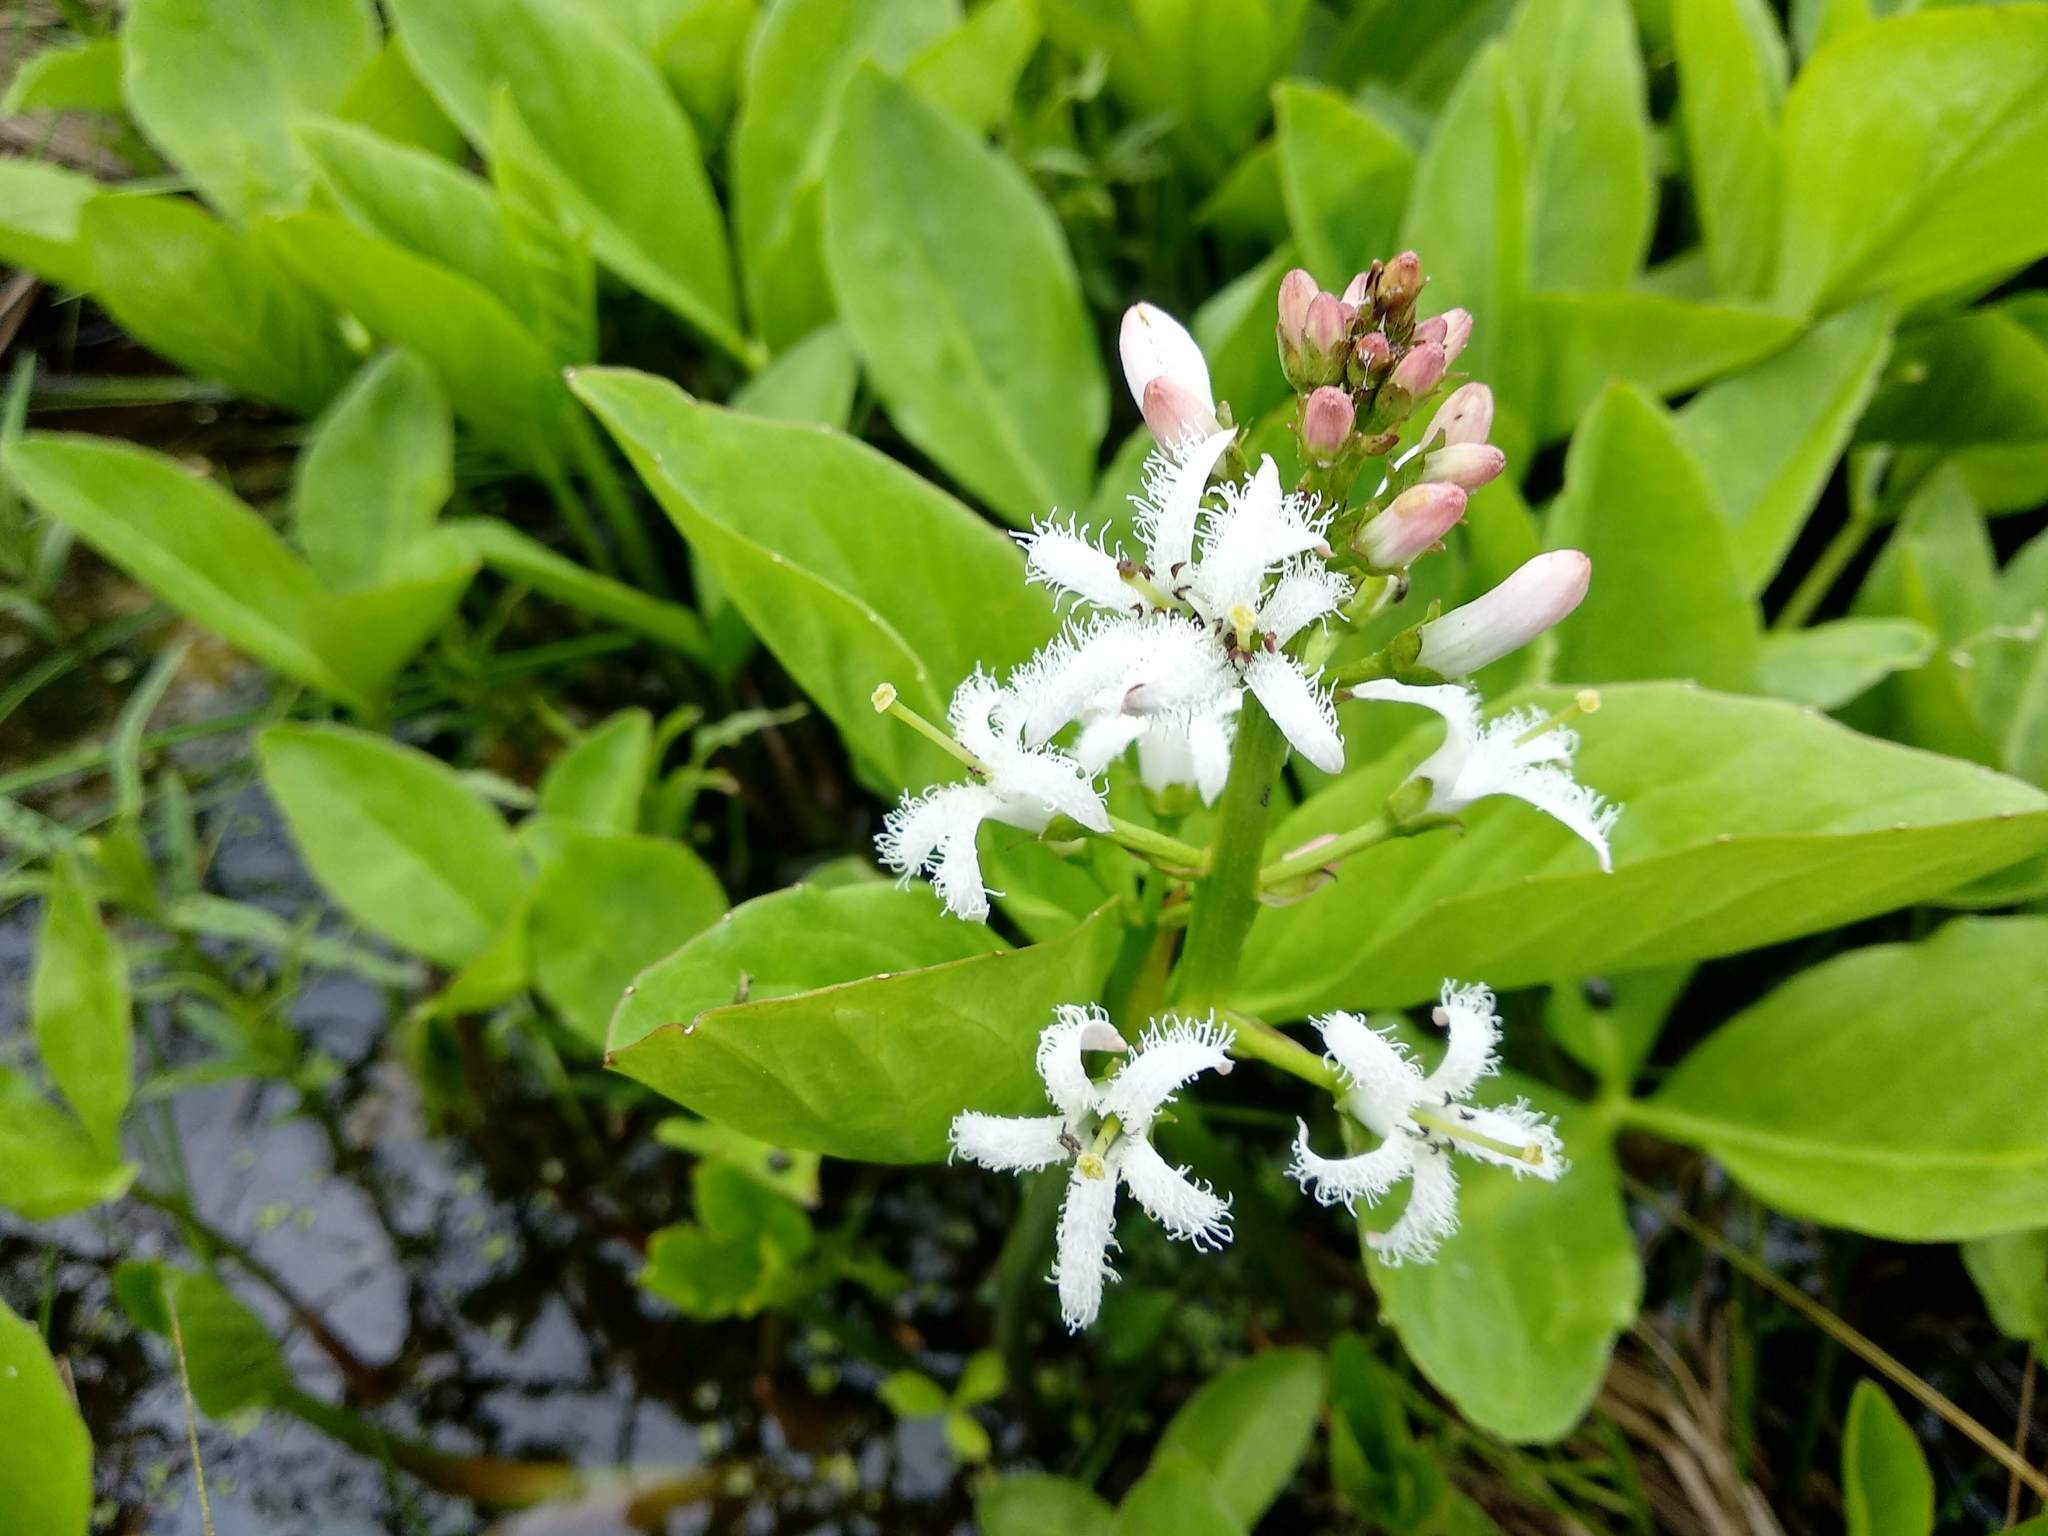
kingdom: Plantae
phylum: Tracheophyta
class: Magnoliopsida
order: Asterales
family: Menyanthaceae
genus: Menyanthes
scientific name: Menyanthes trifoliata
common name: Bogbean
